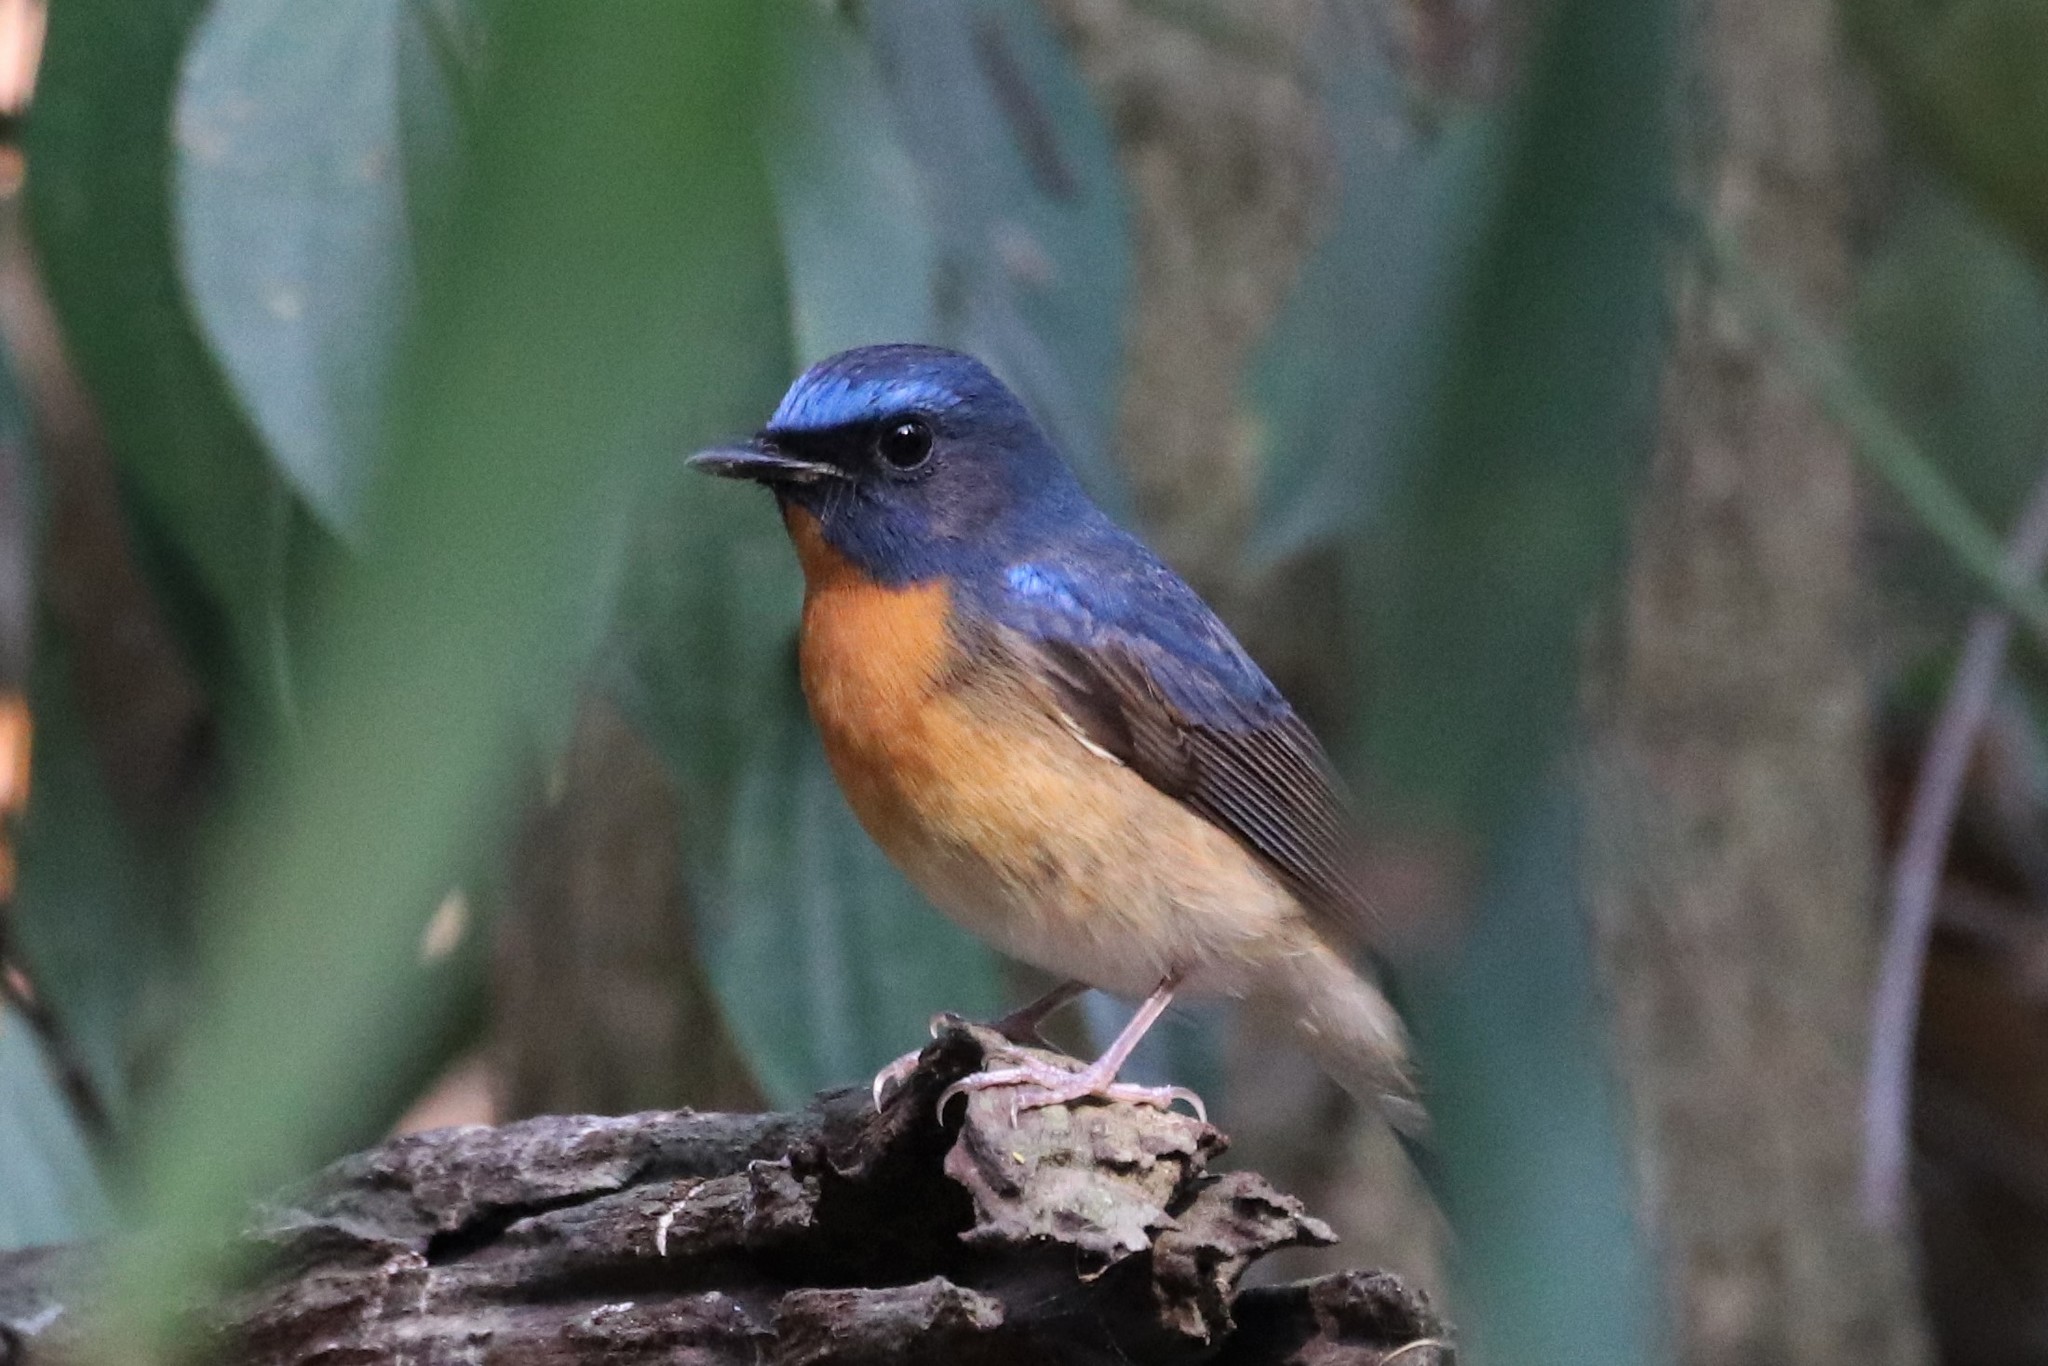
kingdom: Animalia
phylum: Chordata
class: Aves
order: Passeriformes
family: Muscicapidae
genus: Cyornis
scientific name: Cyornis glaucicomans
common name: Chinese blue flycatcher
